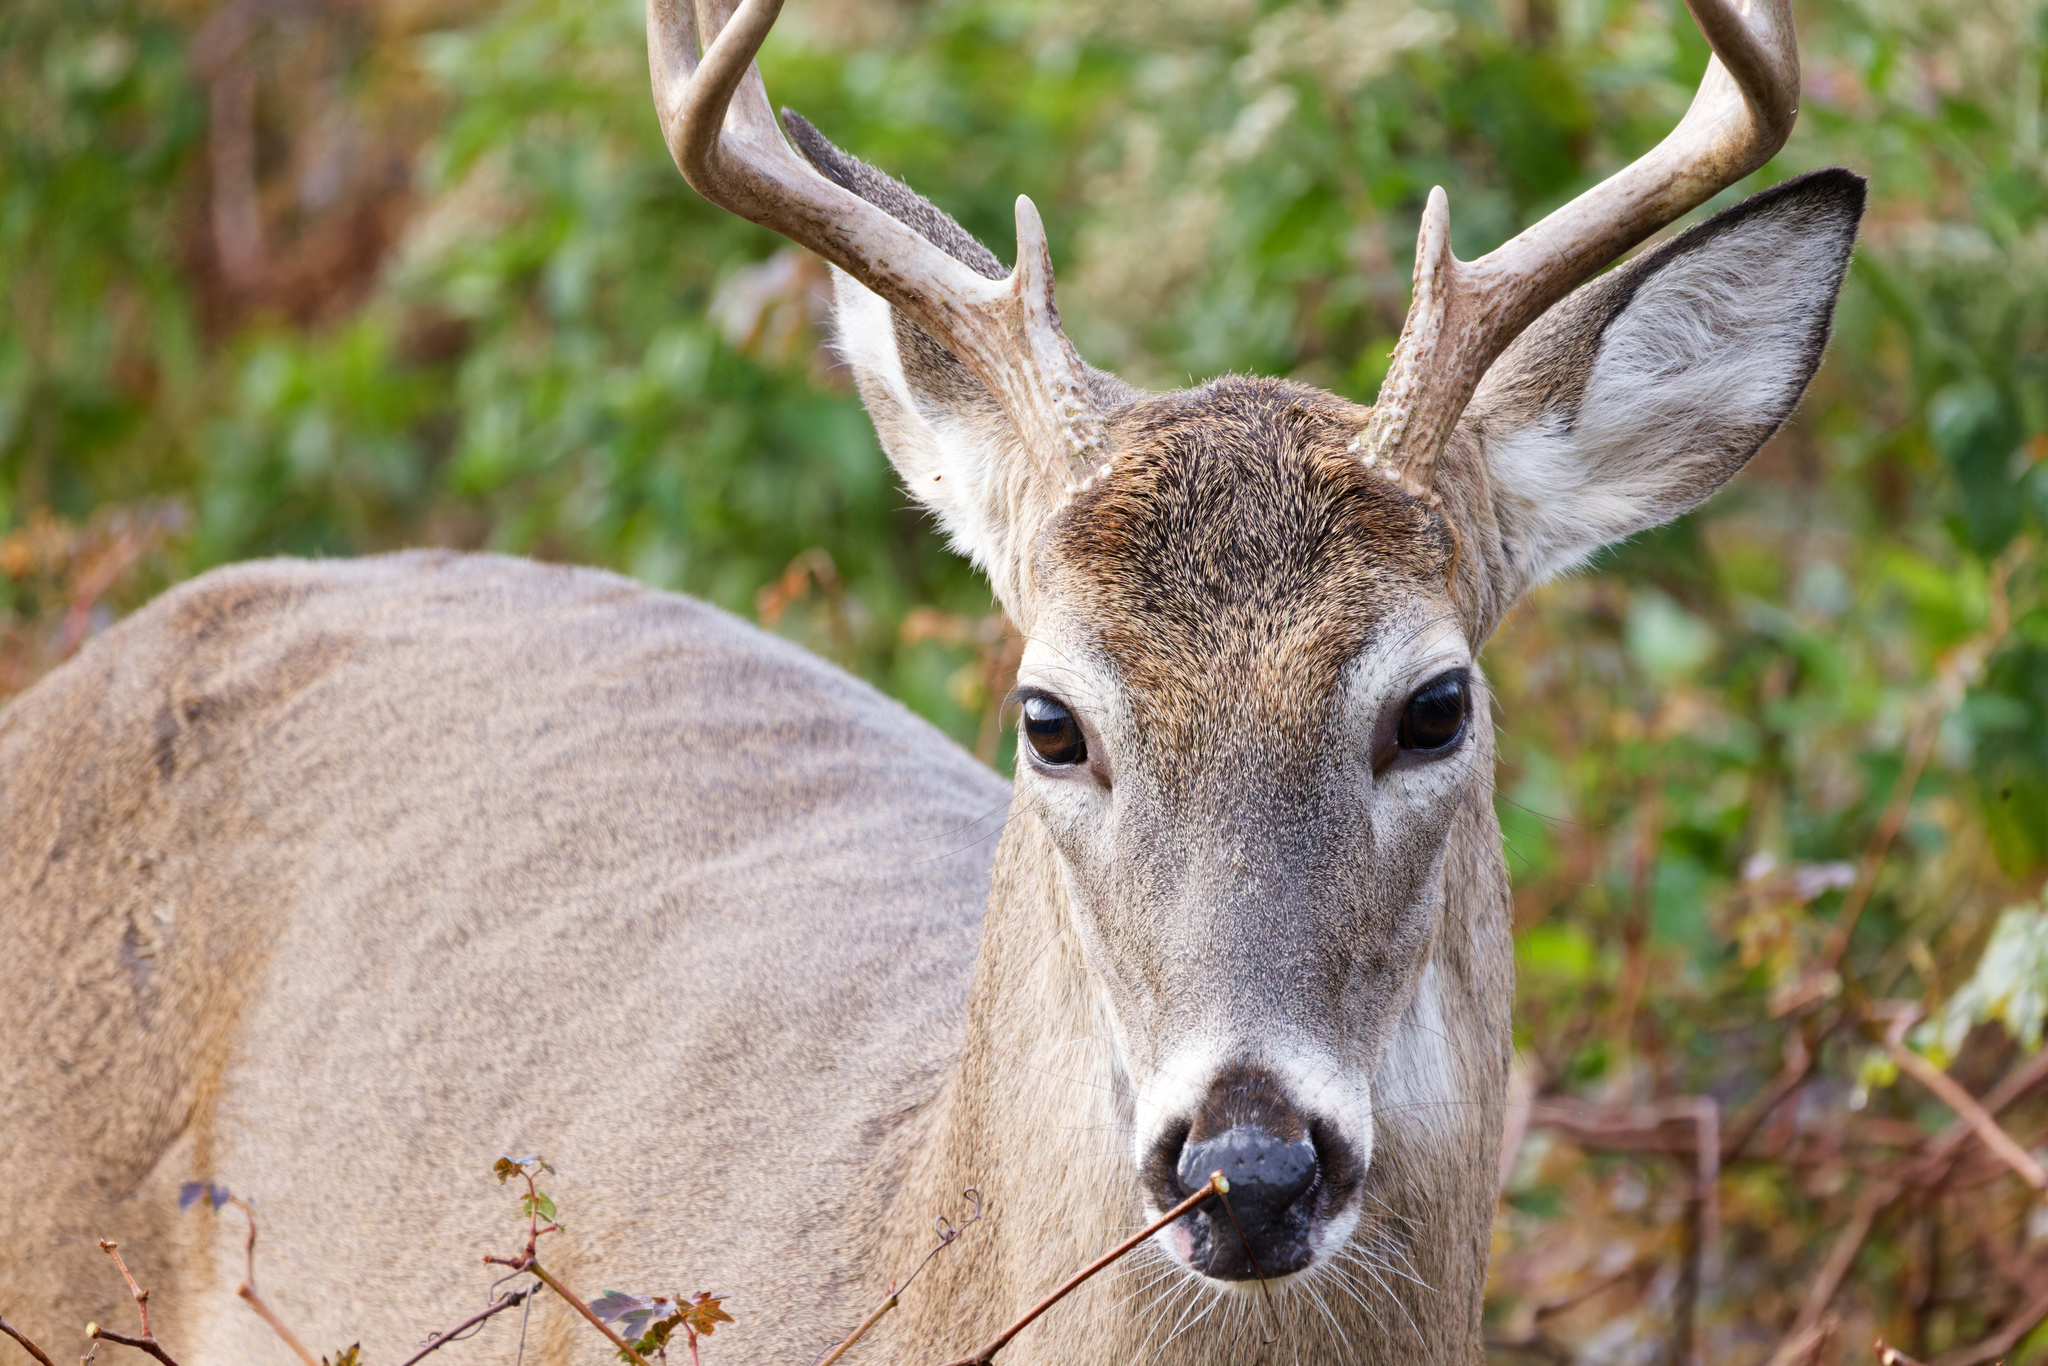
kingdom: Animalia
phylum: Chordata
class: Mammalia
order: Artiodactyla
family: Cervidae
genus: Odocoileus
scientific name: Odocoileus virginianus
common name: White-tailed deer
